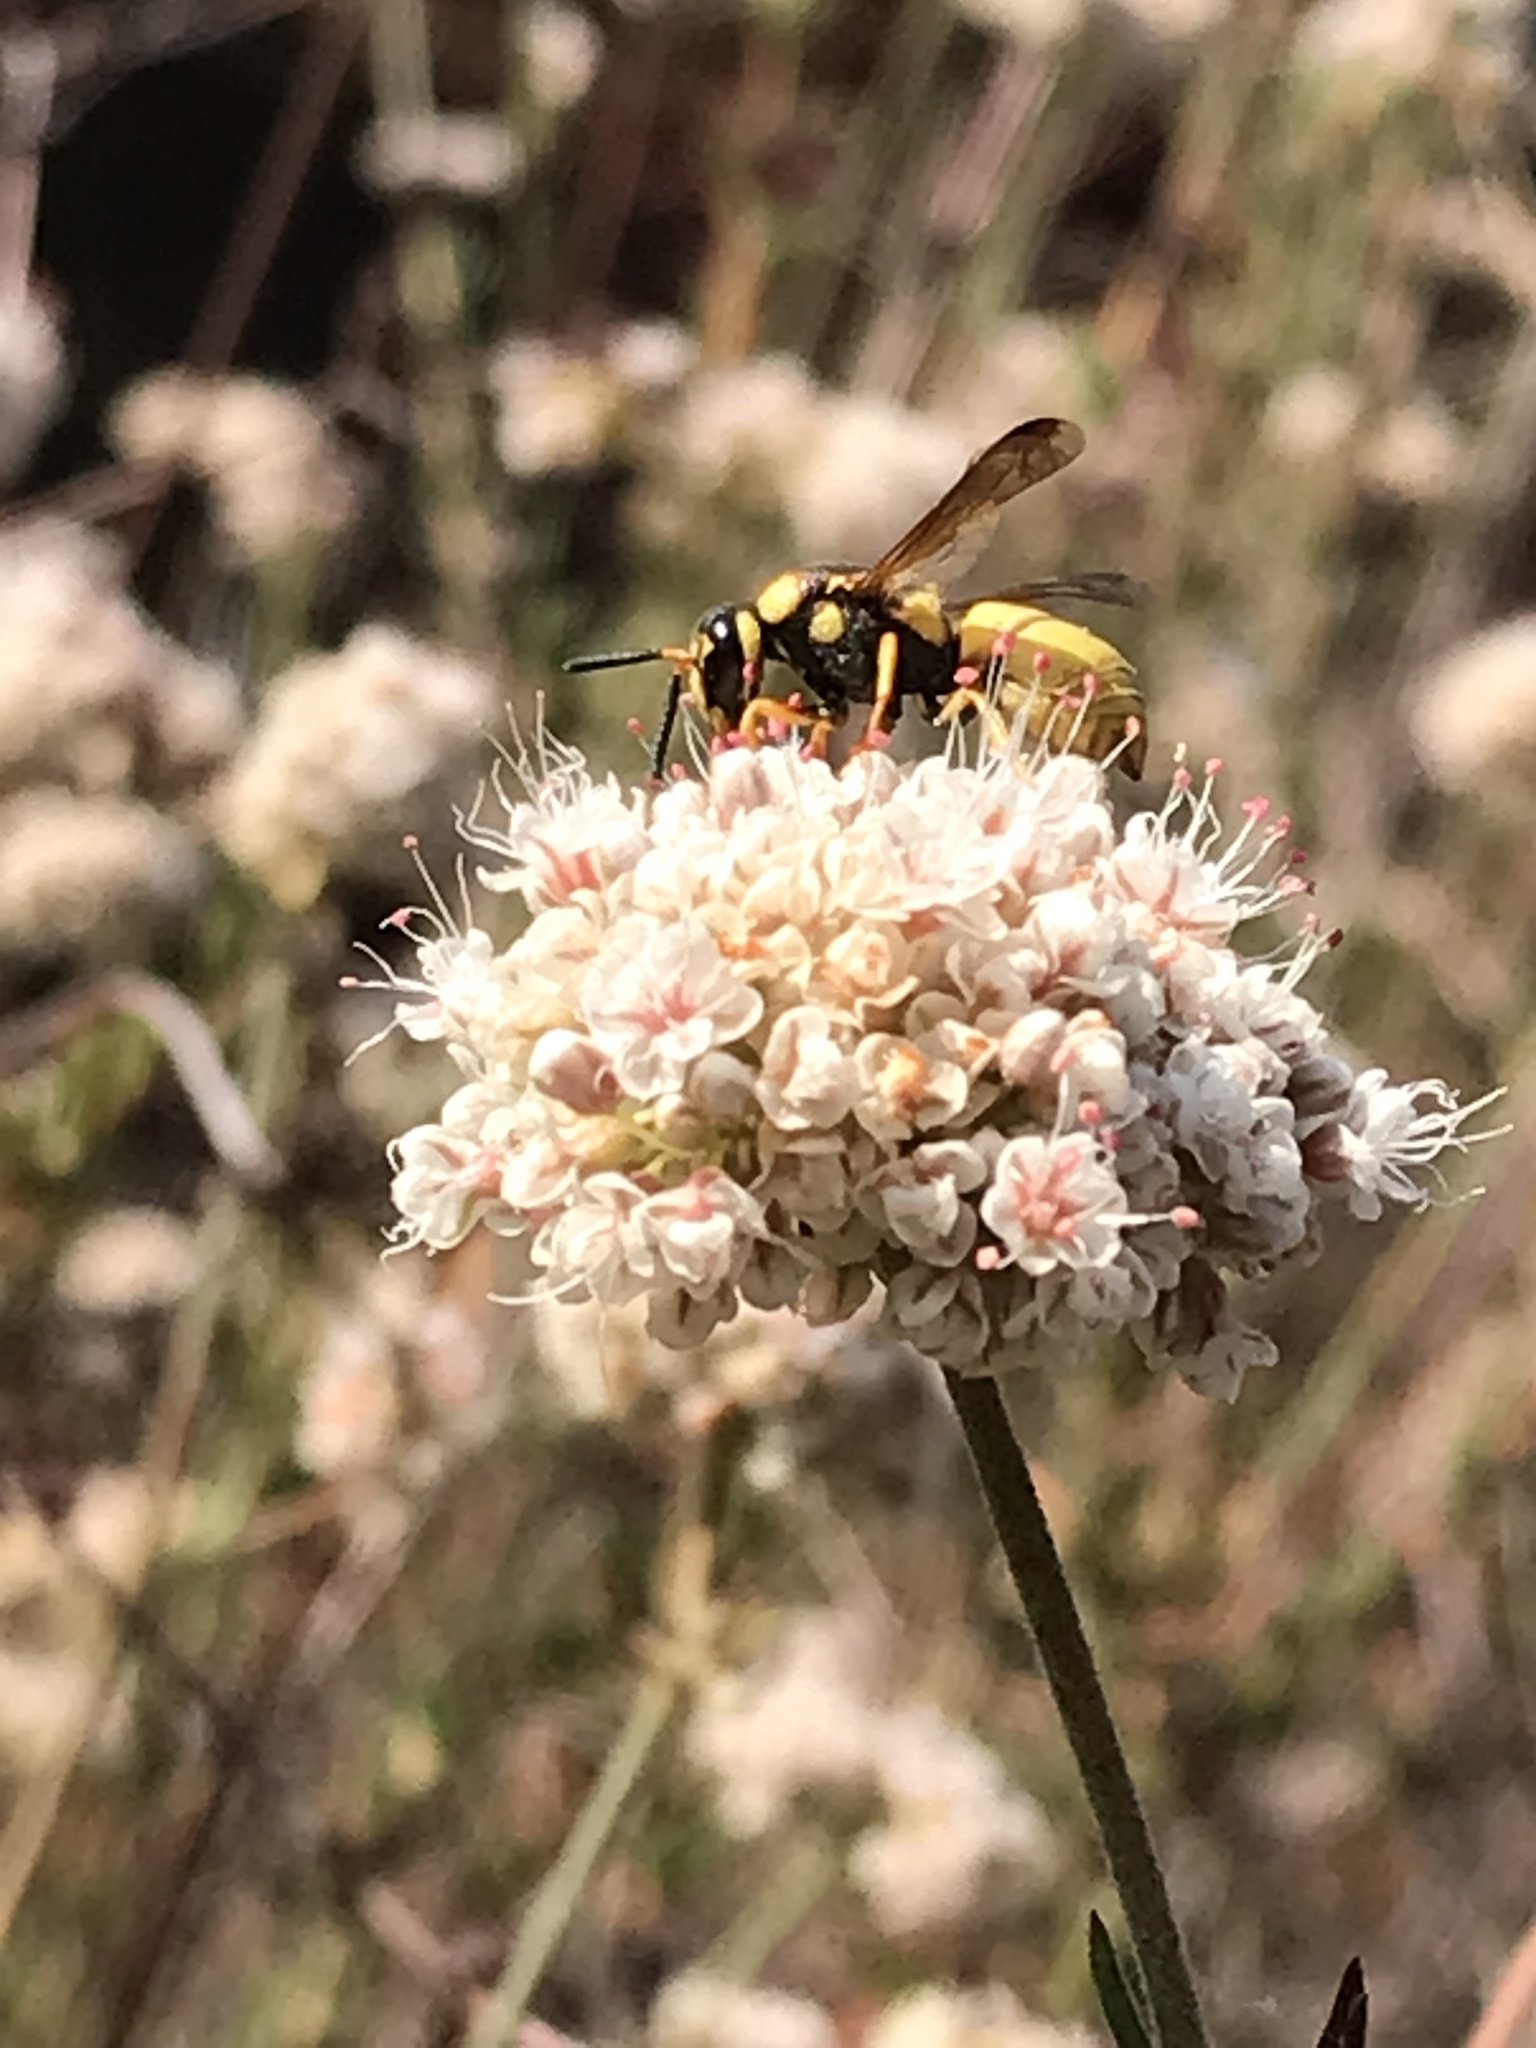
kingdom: Animalia
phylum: Arthropoda
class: Insecta
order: Hymenoptera
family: Eumenidae
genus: Euodynerus
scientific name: Euodynerus hidalgo
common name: Wasp
